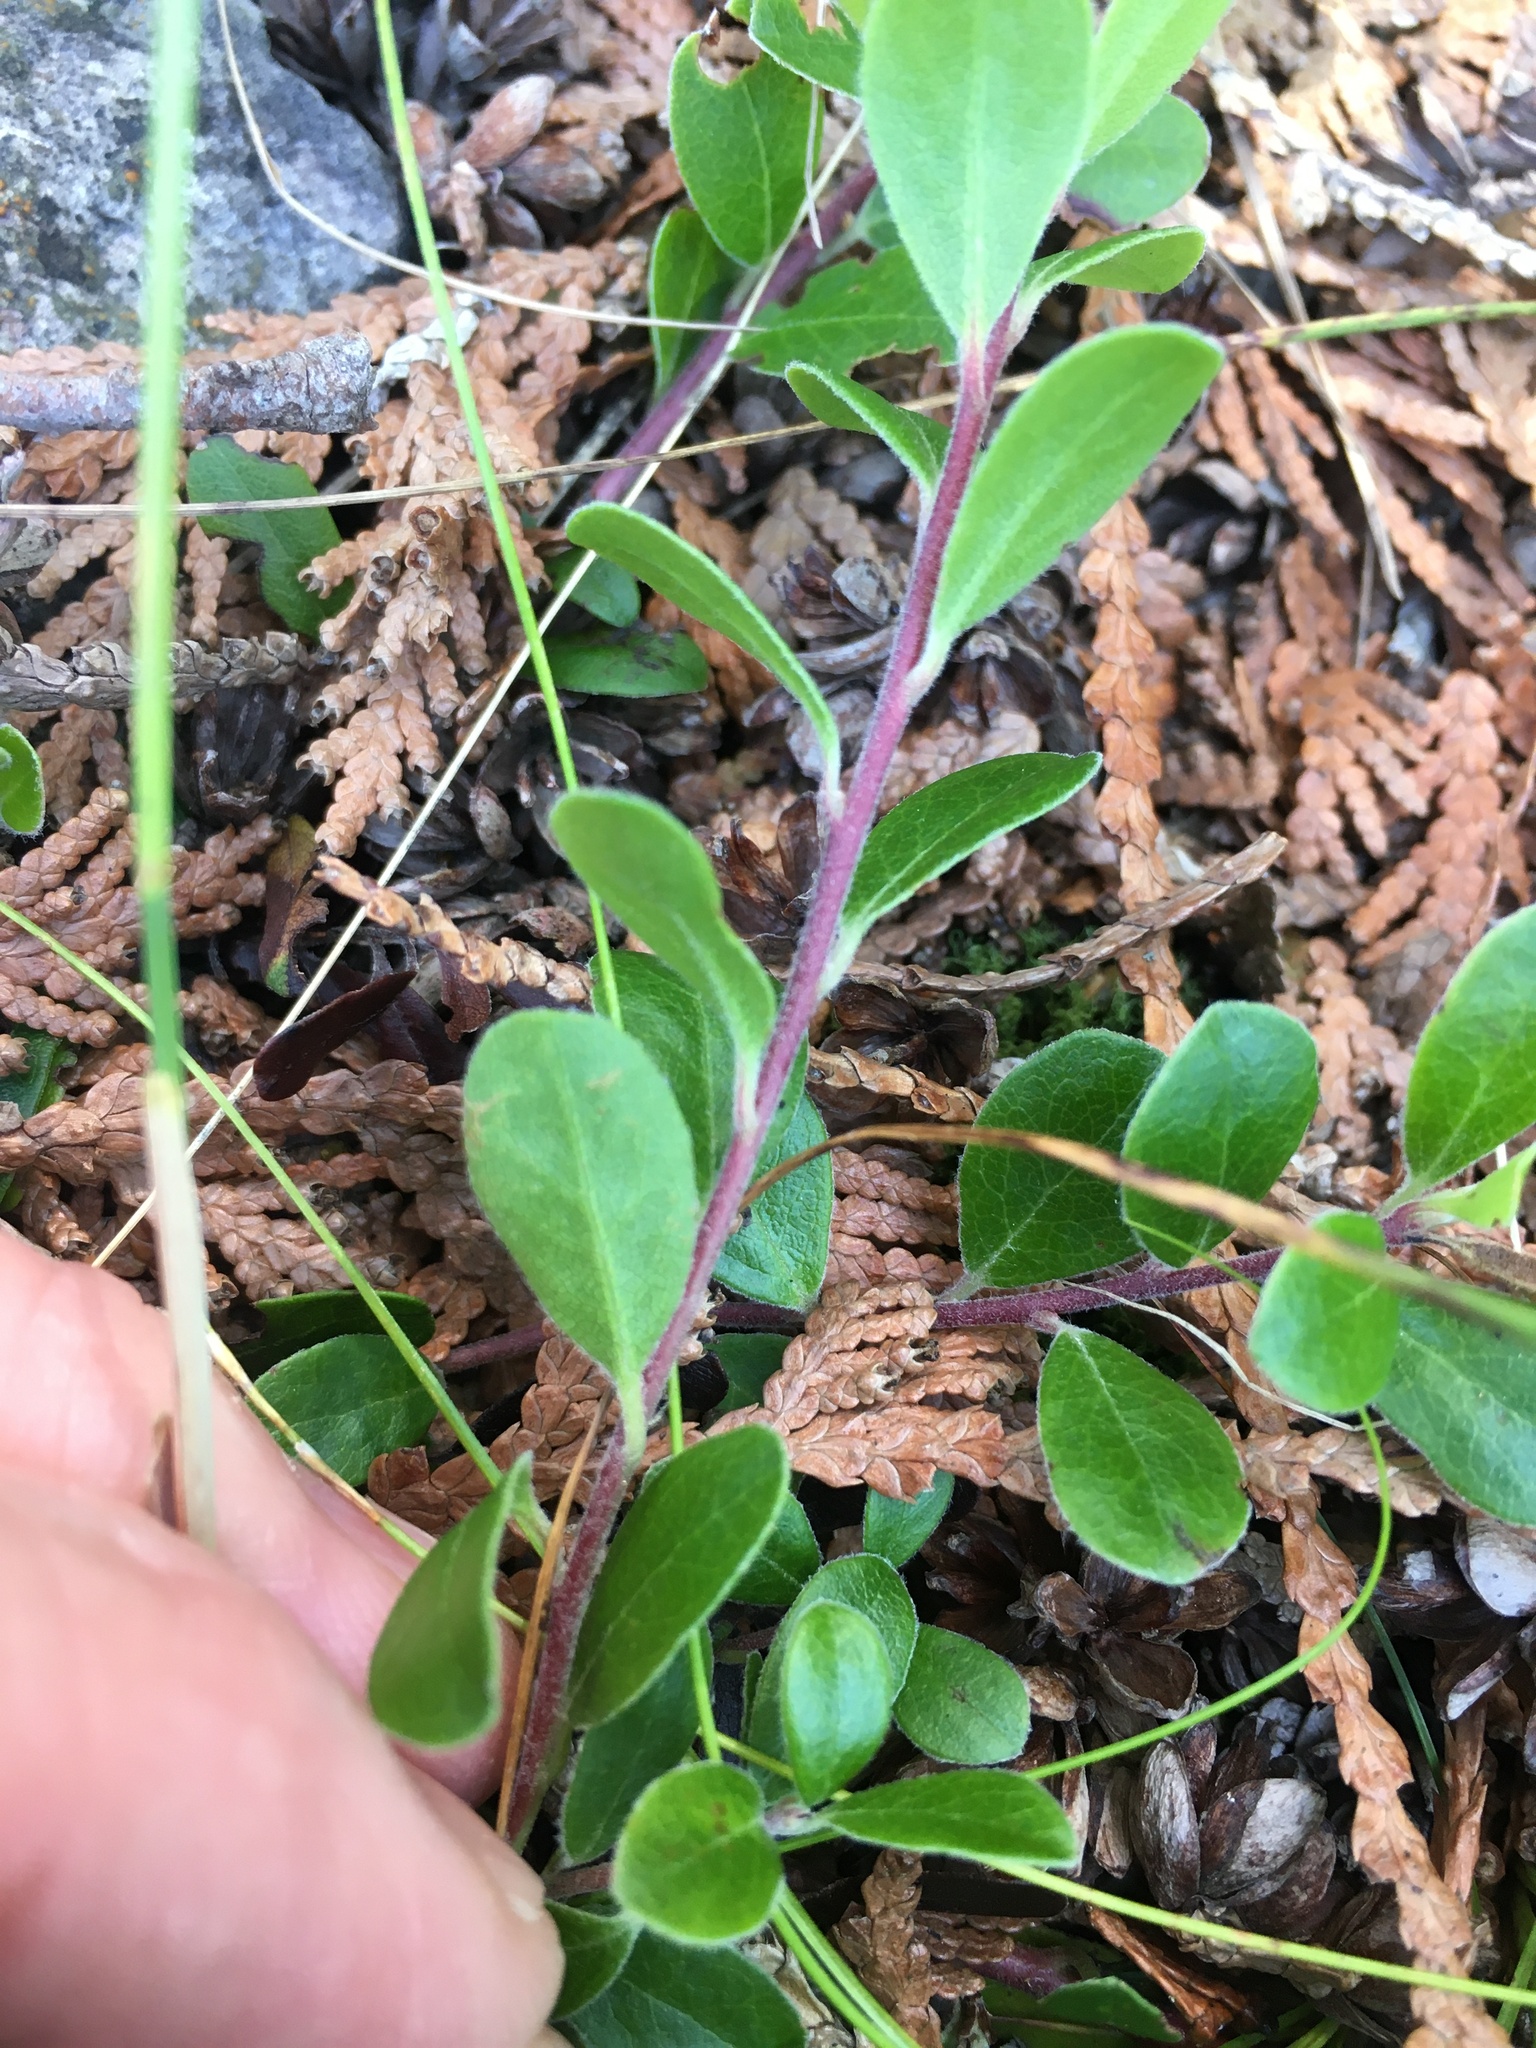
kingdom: Plantae
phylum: Tracheophyta
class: Magnoliopsida
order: Ericales
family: Ericaceae
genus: Arctostaphylos
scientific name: Arctostaphylos uva-ursi
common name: Bearberry
